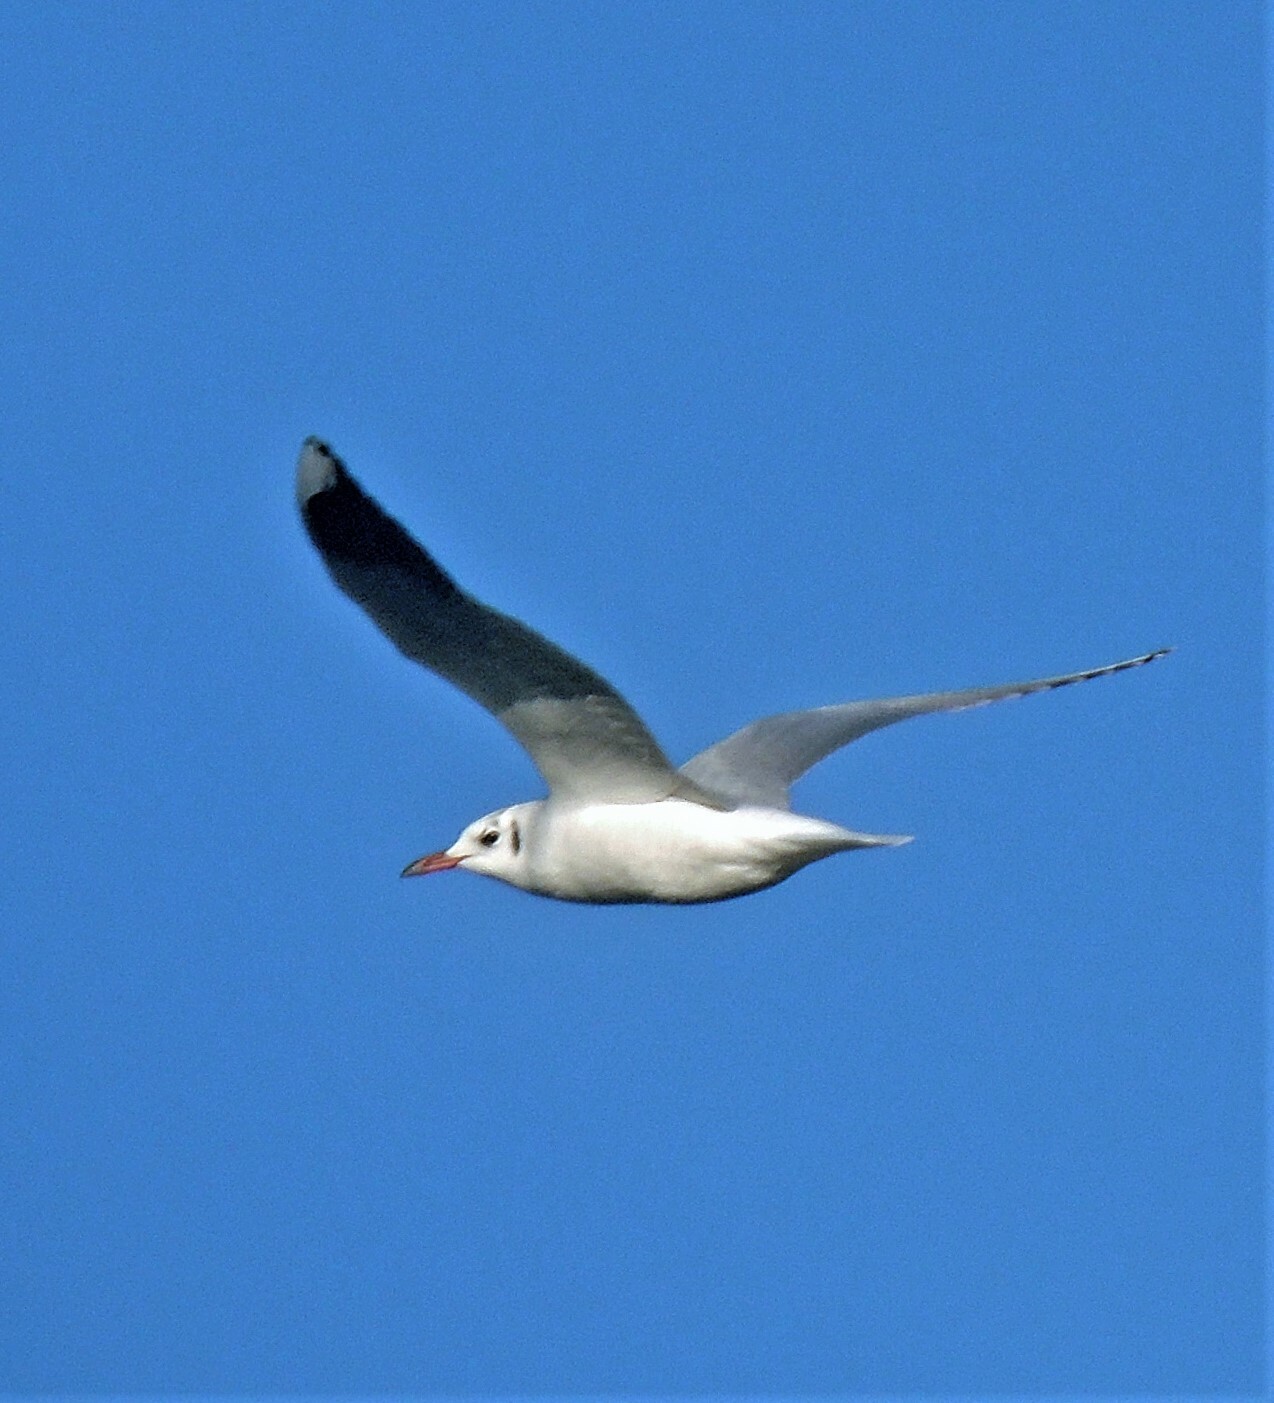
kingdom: Animalia
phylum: Chordata
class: Aves
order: Charadriiformes
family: Laridae
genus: Chroicocephalus
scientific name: Chroicocephalus maculipennis
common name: Brown-hooded gull
